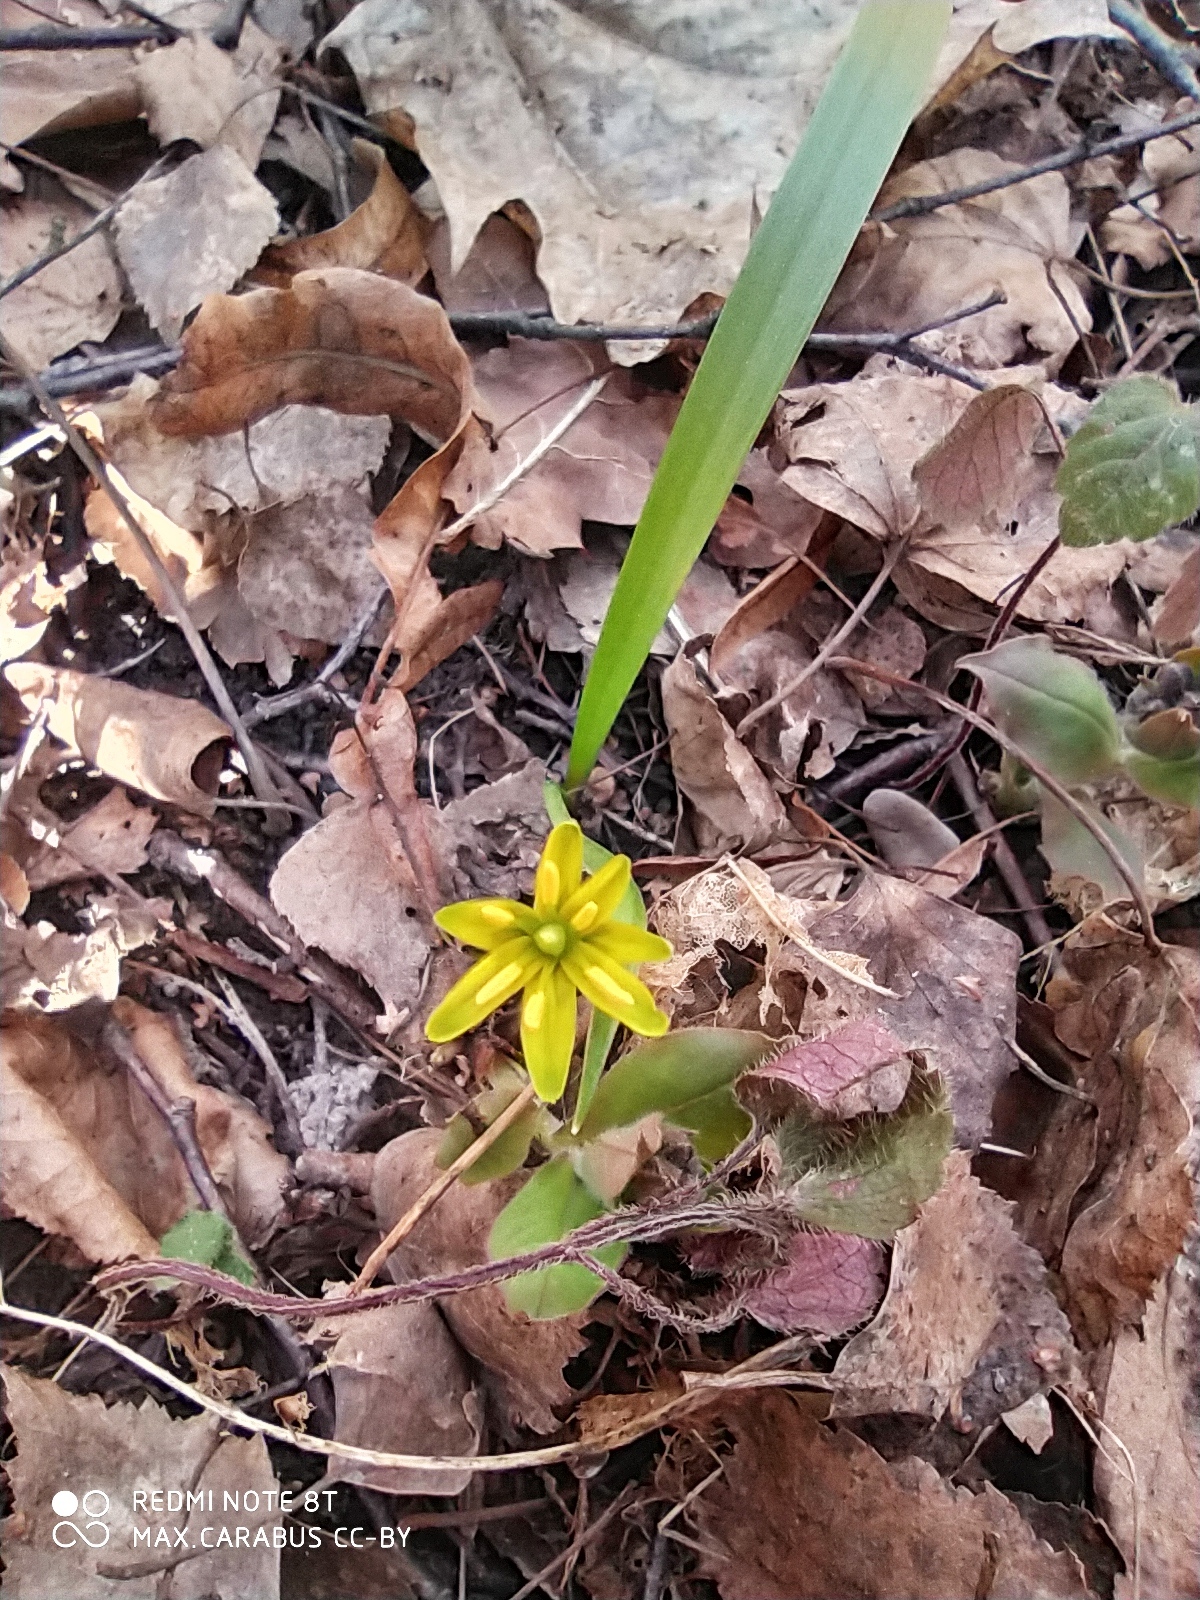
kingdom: Plantae
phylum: Tracheophyta
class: Liliopsida
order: Liliales
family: Liliaceae
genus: Gagea
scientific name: Gagea lutea
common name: Yellow star-of-bethlehem
